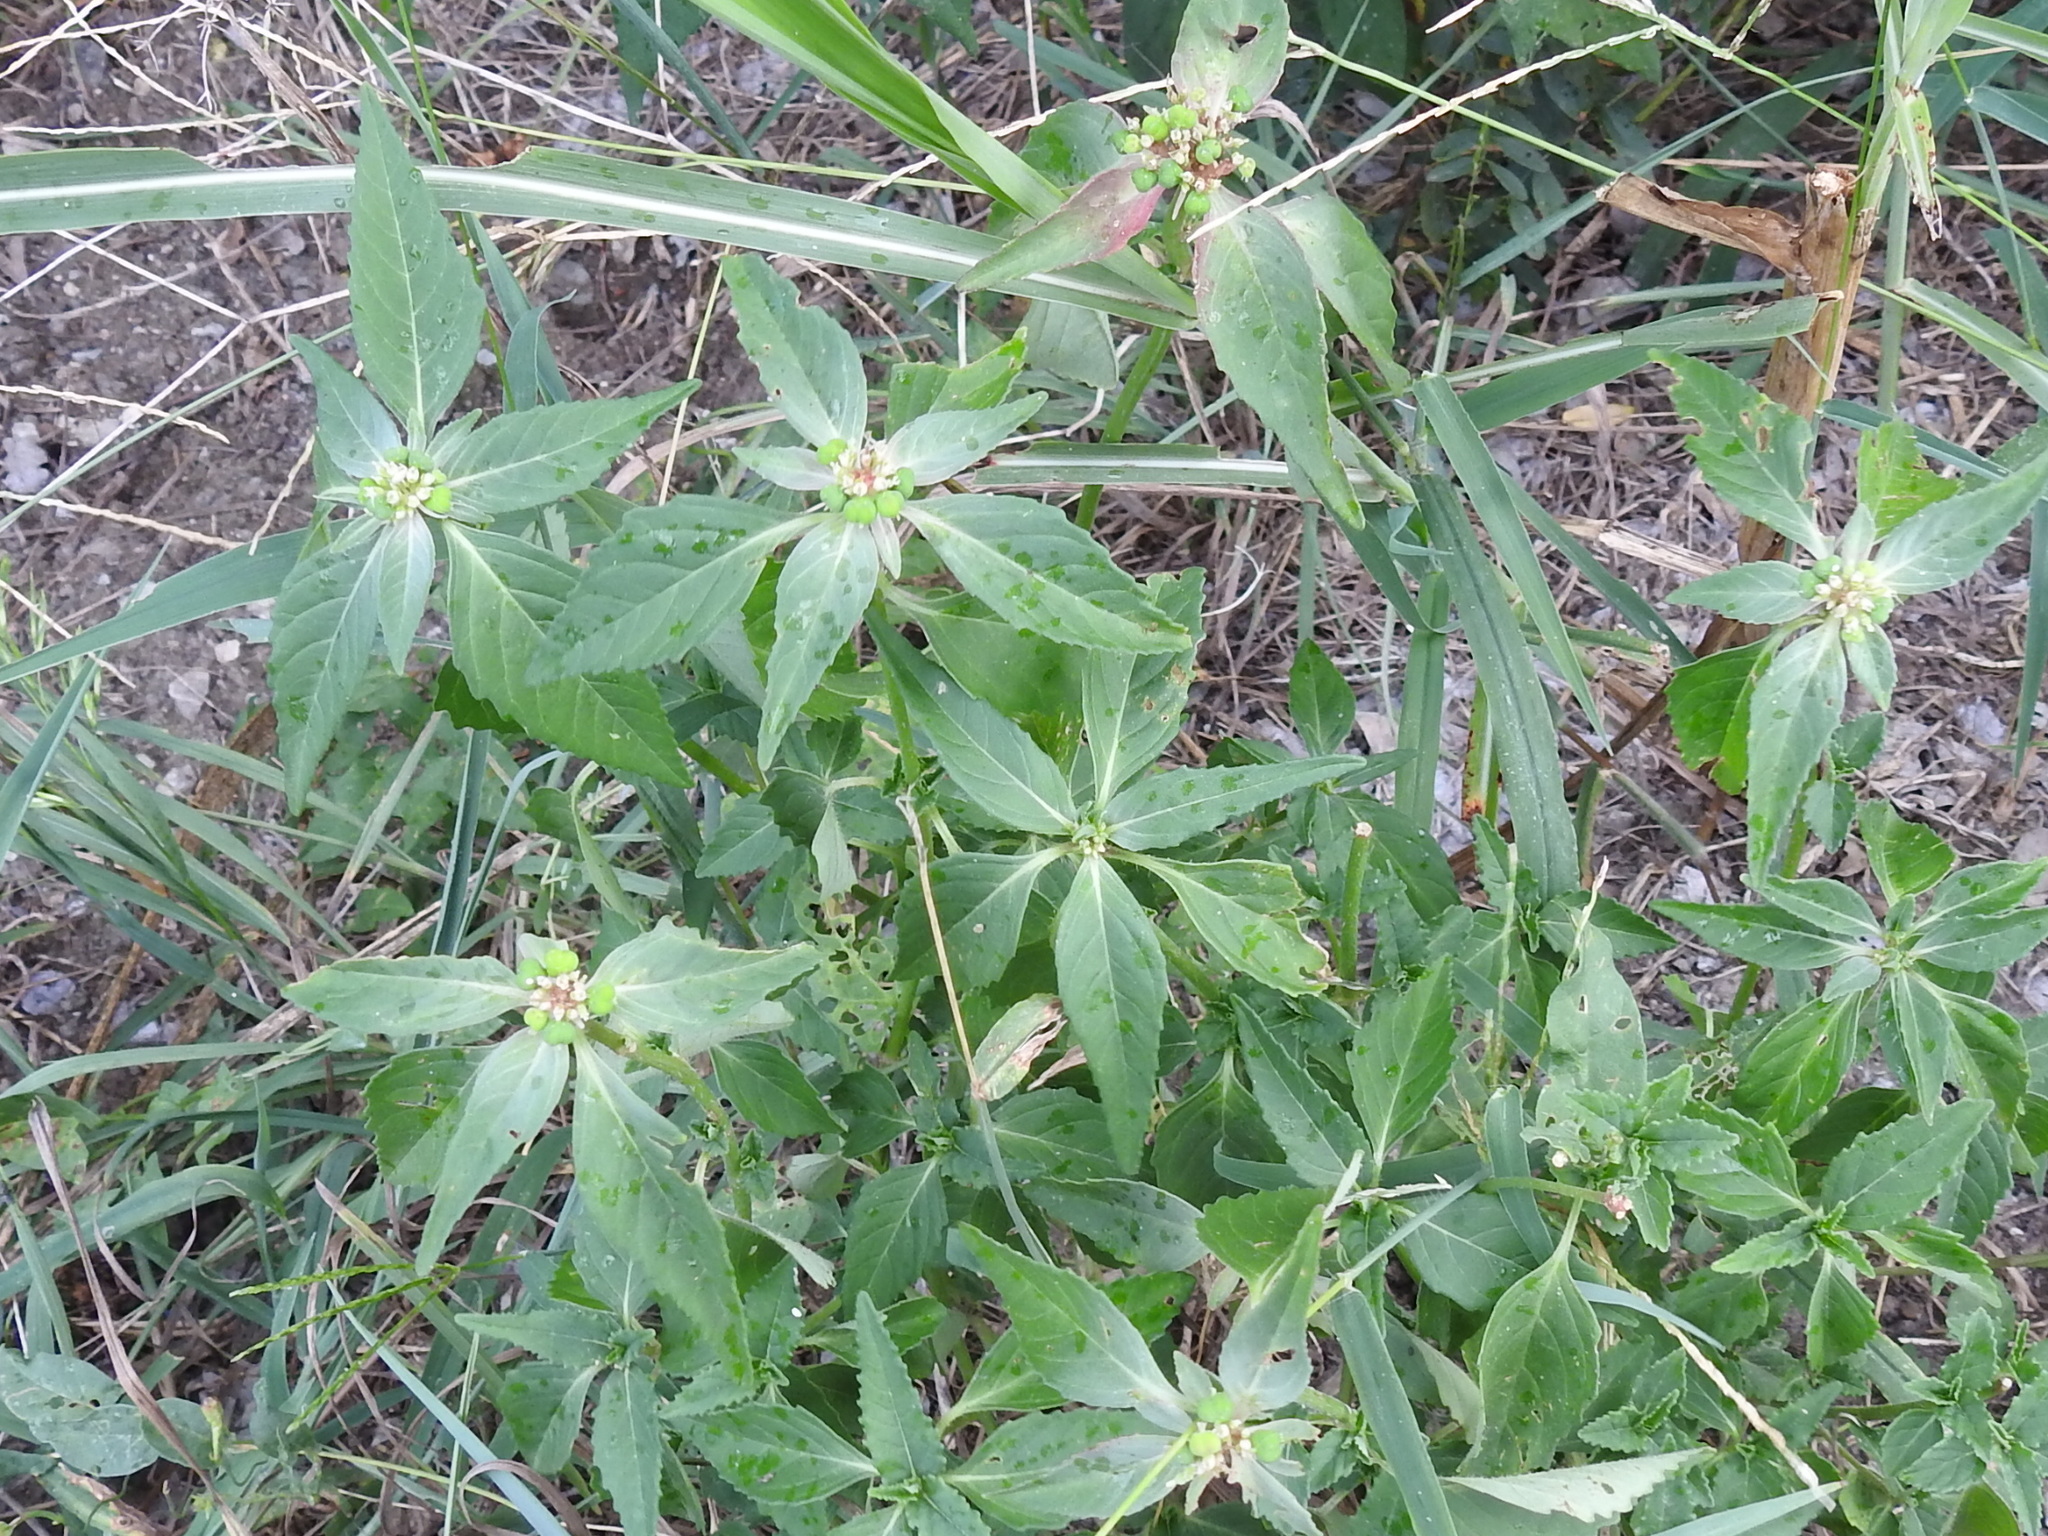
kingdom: Plantae
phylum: Tracheophyta
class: Magnoliopsida
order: Malpighiales
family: Euphorbiaceae
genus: Euphorbia
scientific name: Euphorbia dentata
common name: Dentate spurge
